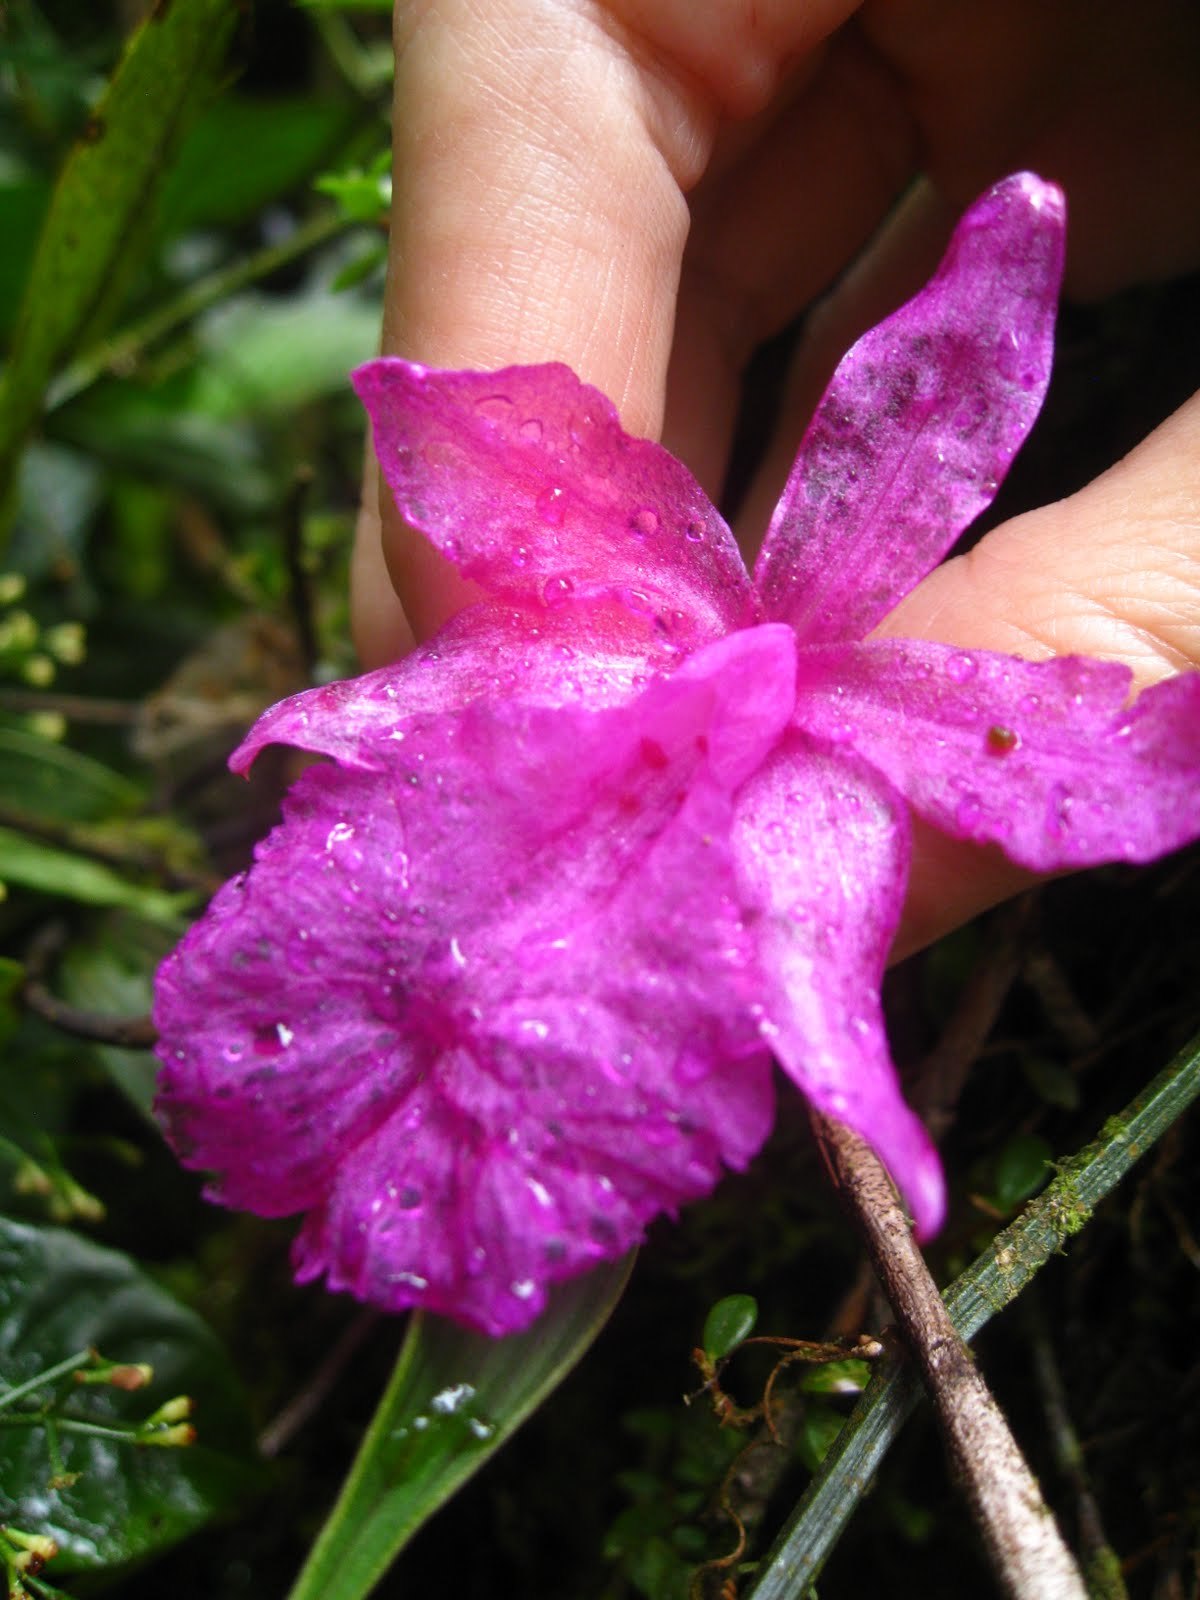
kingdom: Plantae
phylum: Tracheophyta
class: Liliopsida
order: Asparagales
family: Orchidaceae
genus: Sobralia
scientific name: Sobralia amabilis
